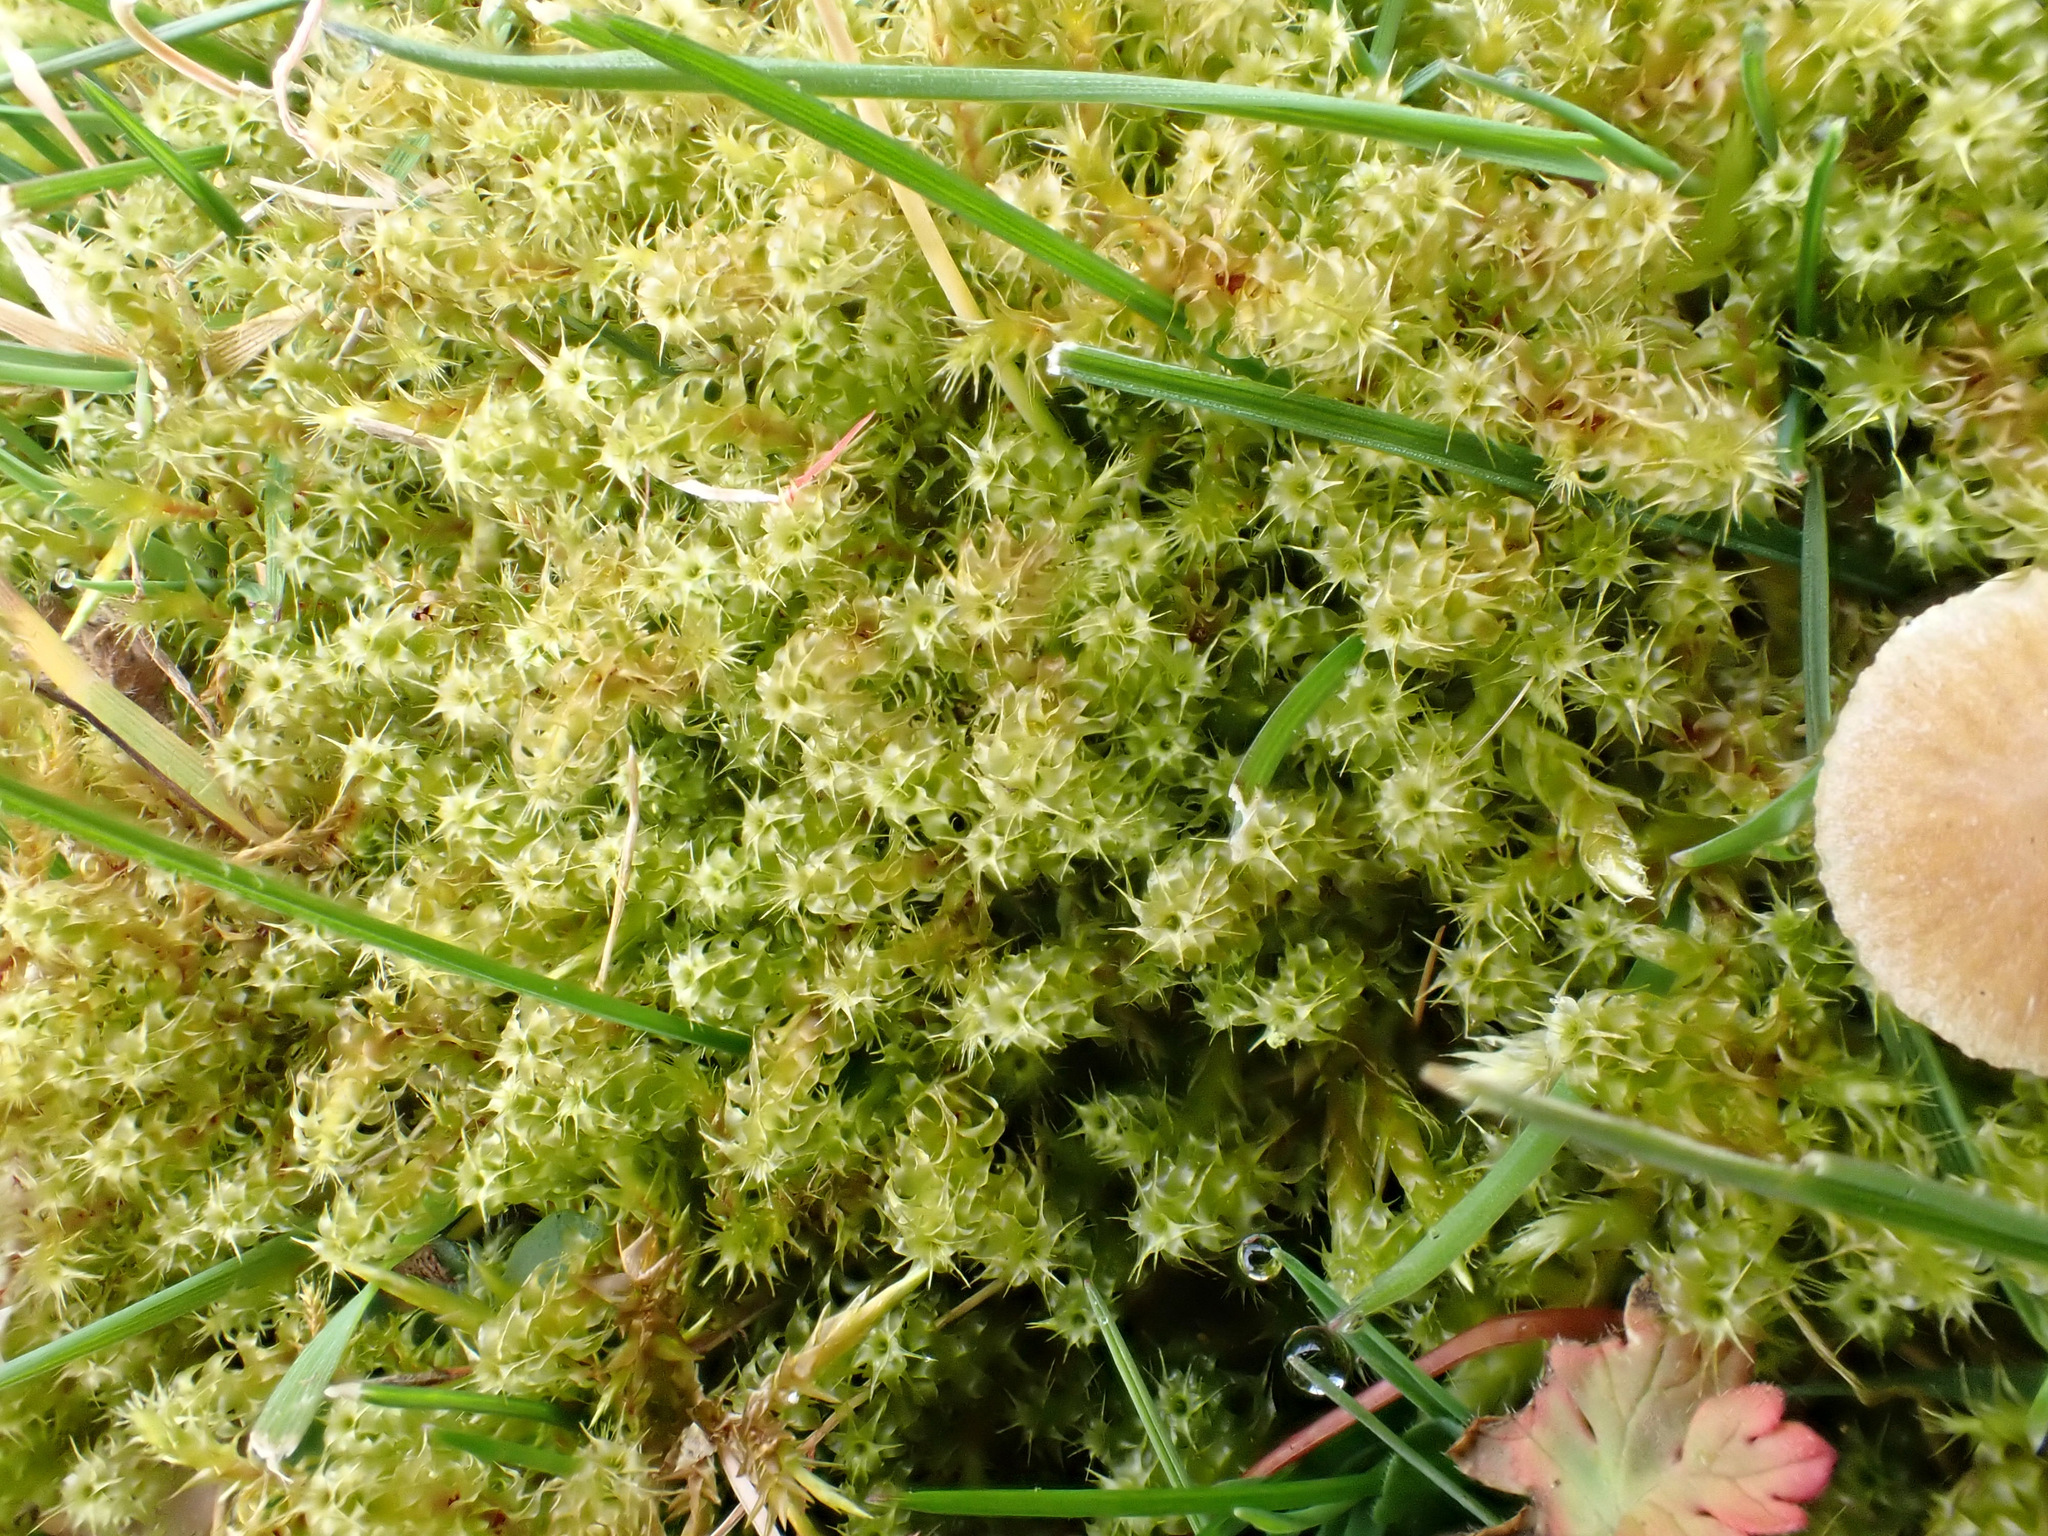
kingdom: Plantae
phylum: Bryophyta
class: Bryopsida
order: Hypnales
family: Hylocomiaceae
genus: Rhytidiadelphus
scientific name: Rhytidiadelphus squarrosus
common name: Springy turf-moss
